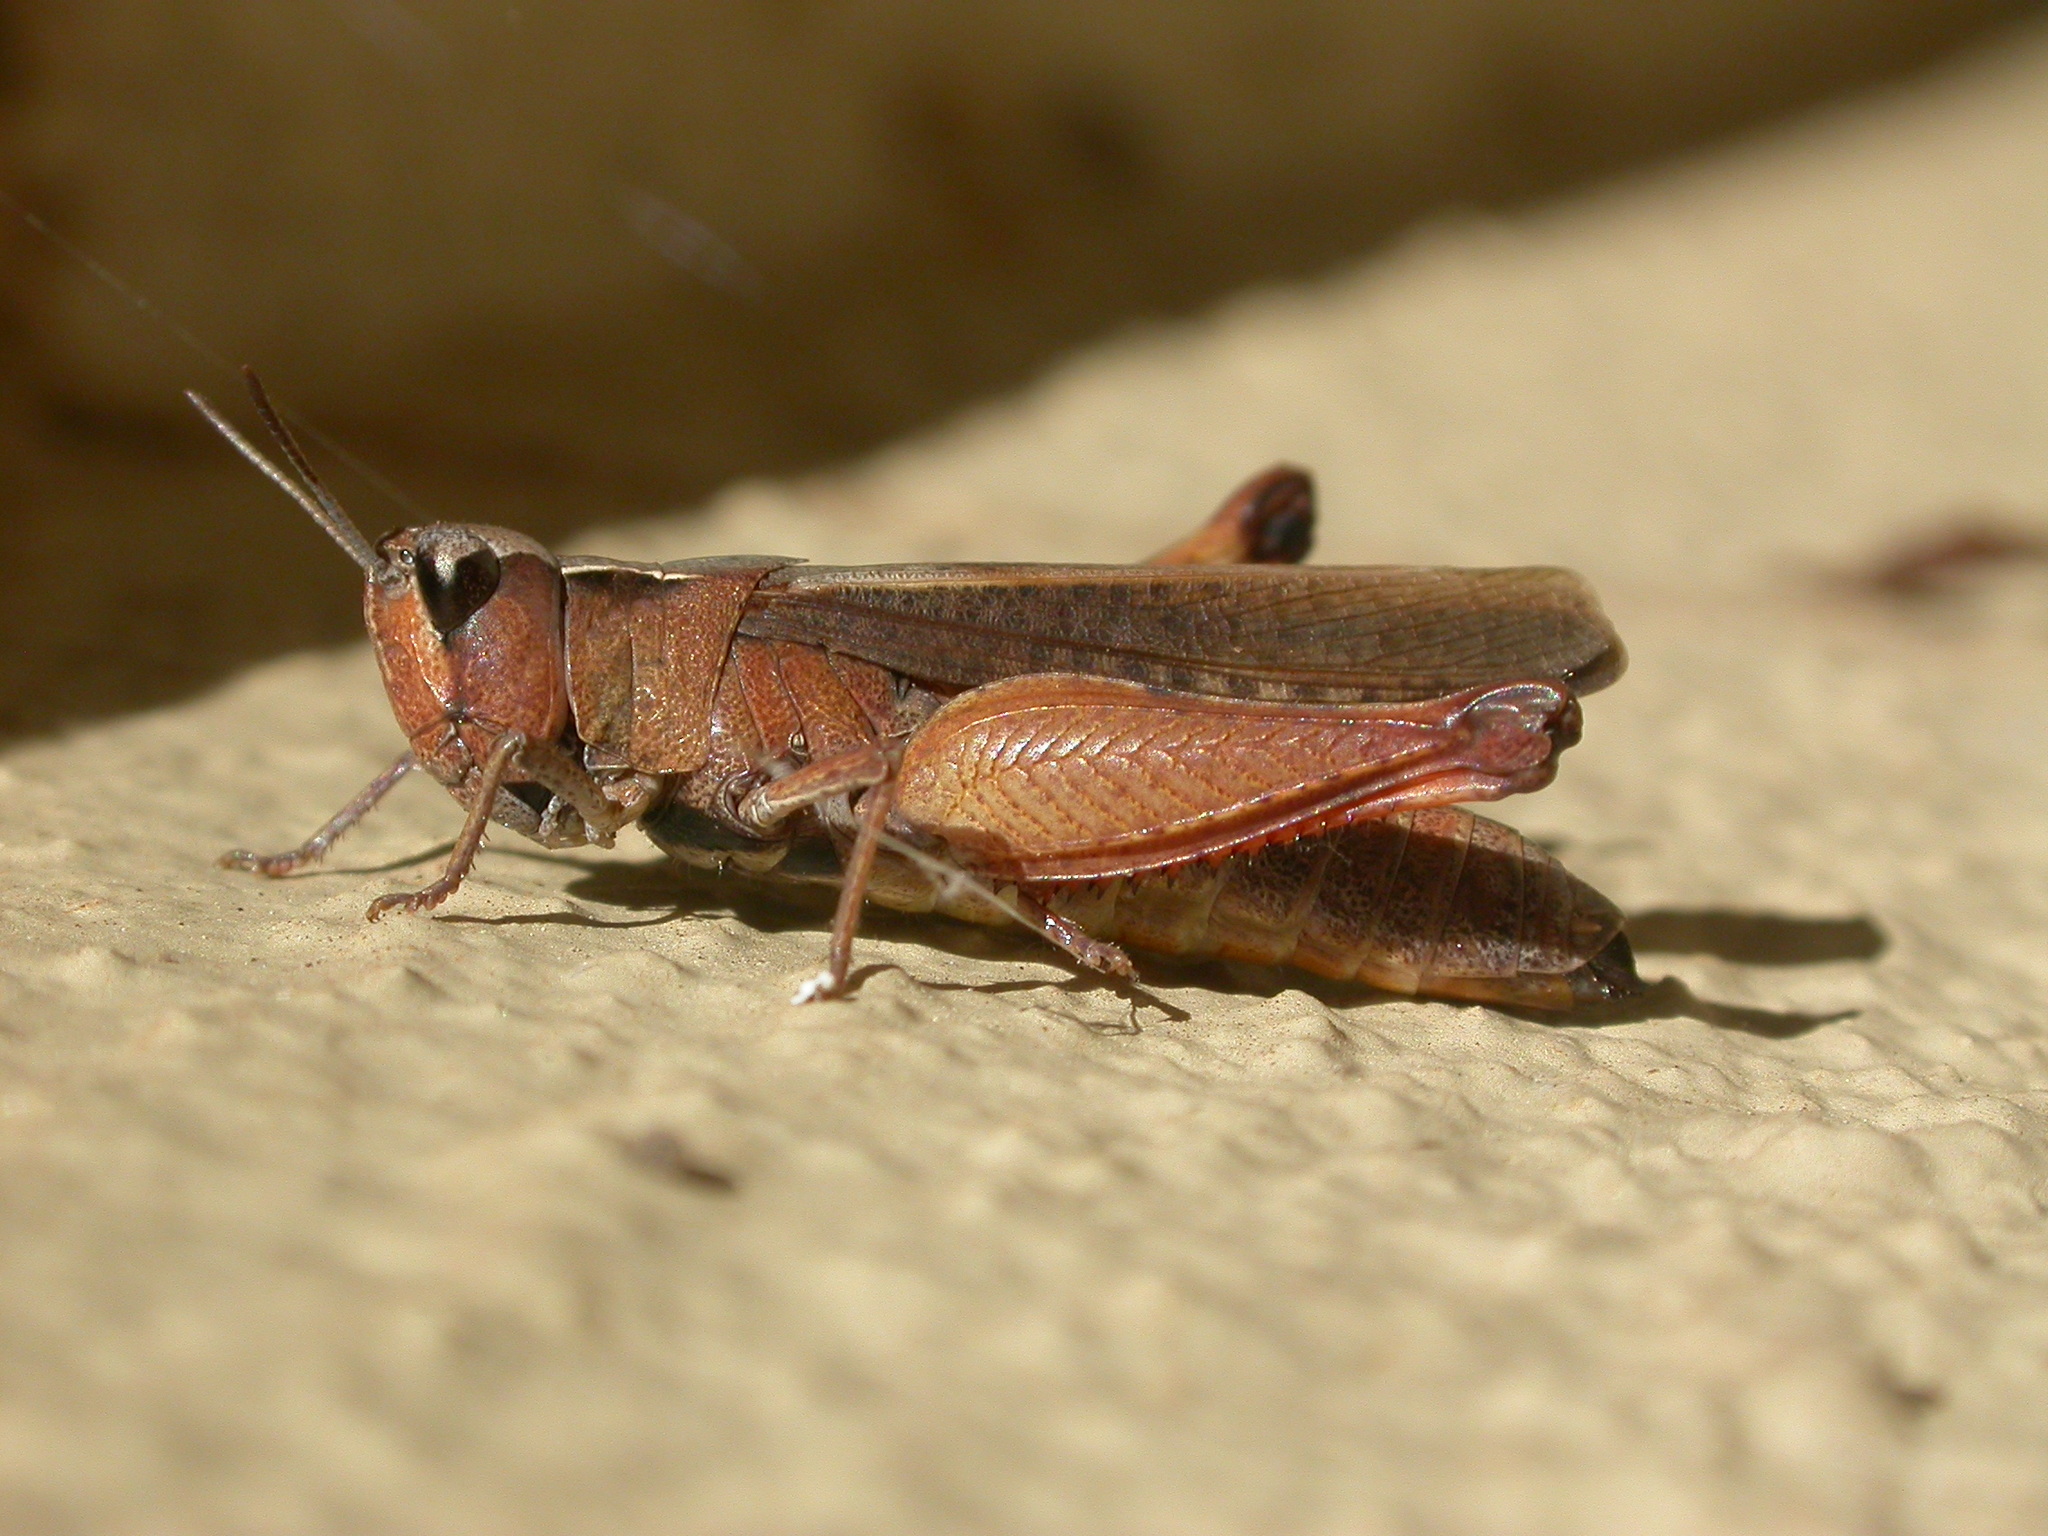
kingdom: Animalia
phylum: Arthropoda
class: Insecta
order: Orthoptera
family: Acrididae
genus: Cryptobothrus
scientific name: Cryptobothrus chrysophorus
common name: Golden bandwing
